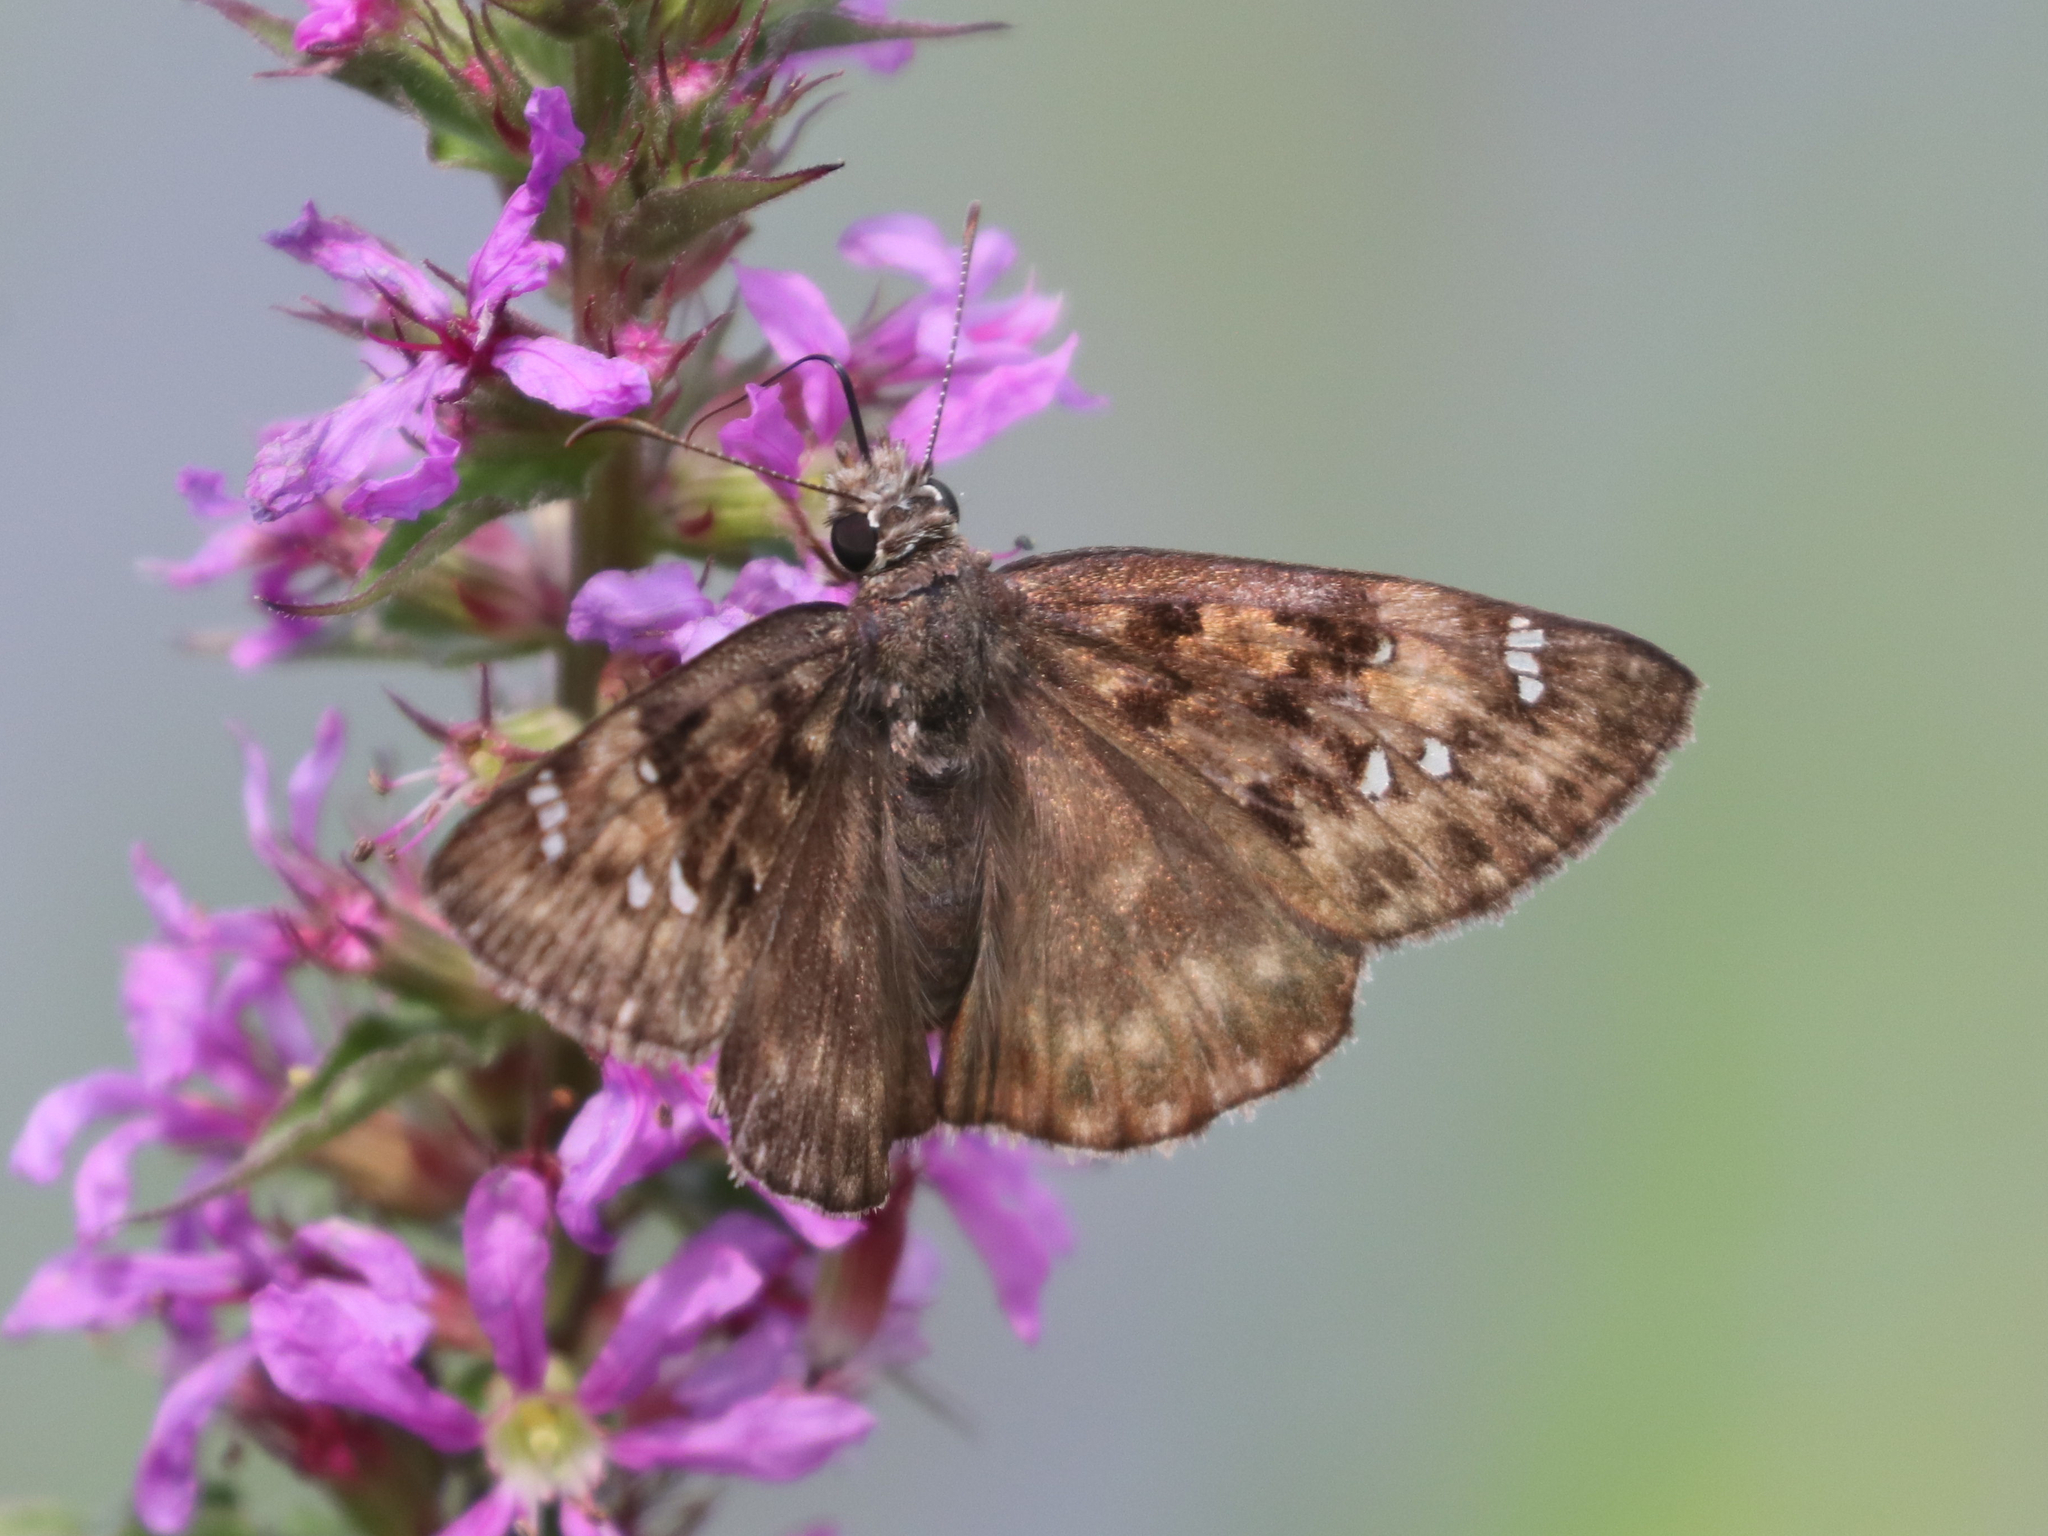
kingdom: Animalia
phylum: Arthropoda
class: Insecta
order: Lepidoptera
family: Hesperiidae
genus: Erynnis
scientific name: Erynnis horatius
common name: Horace's duskywing
